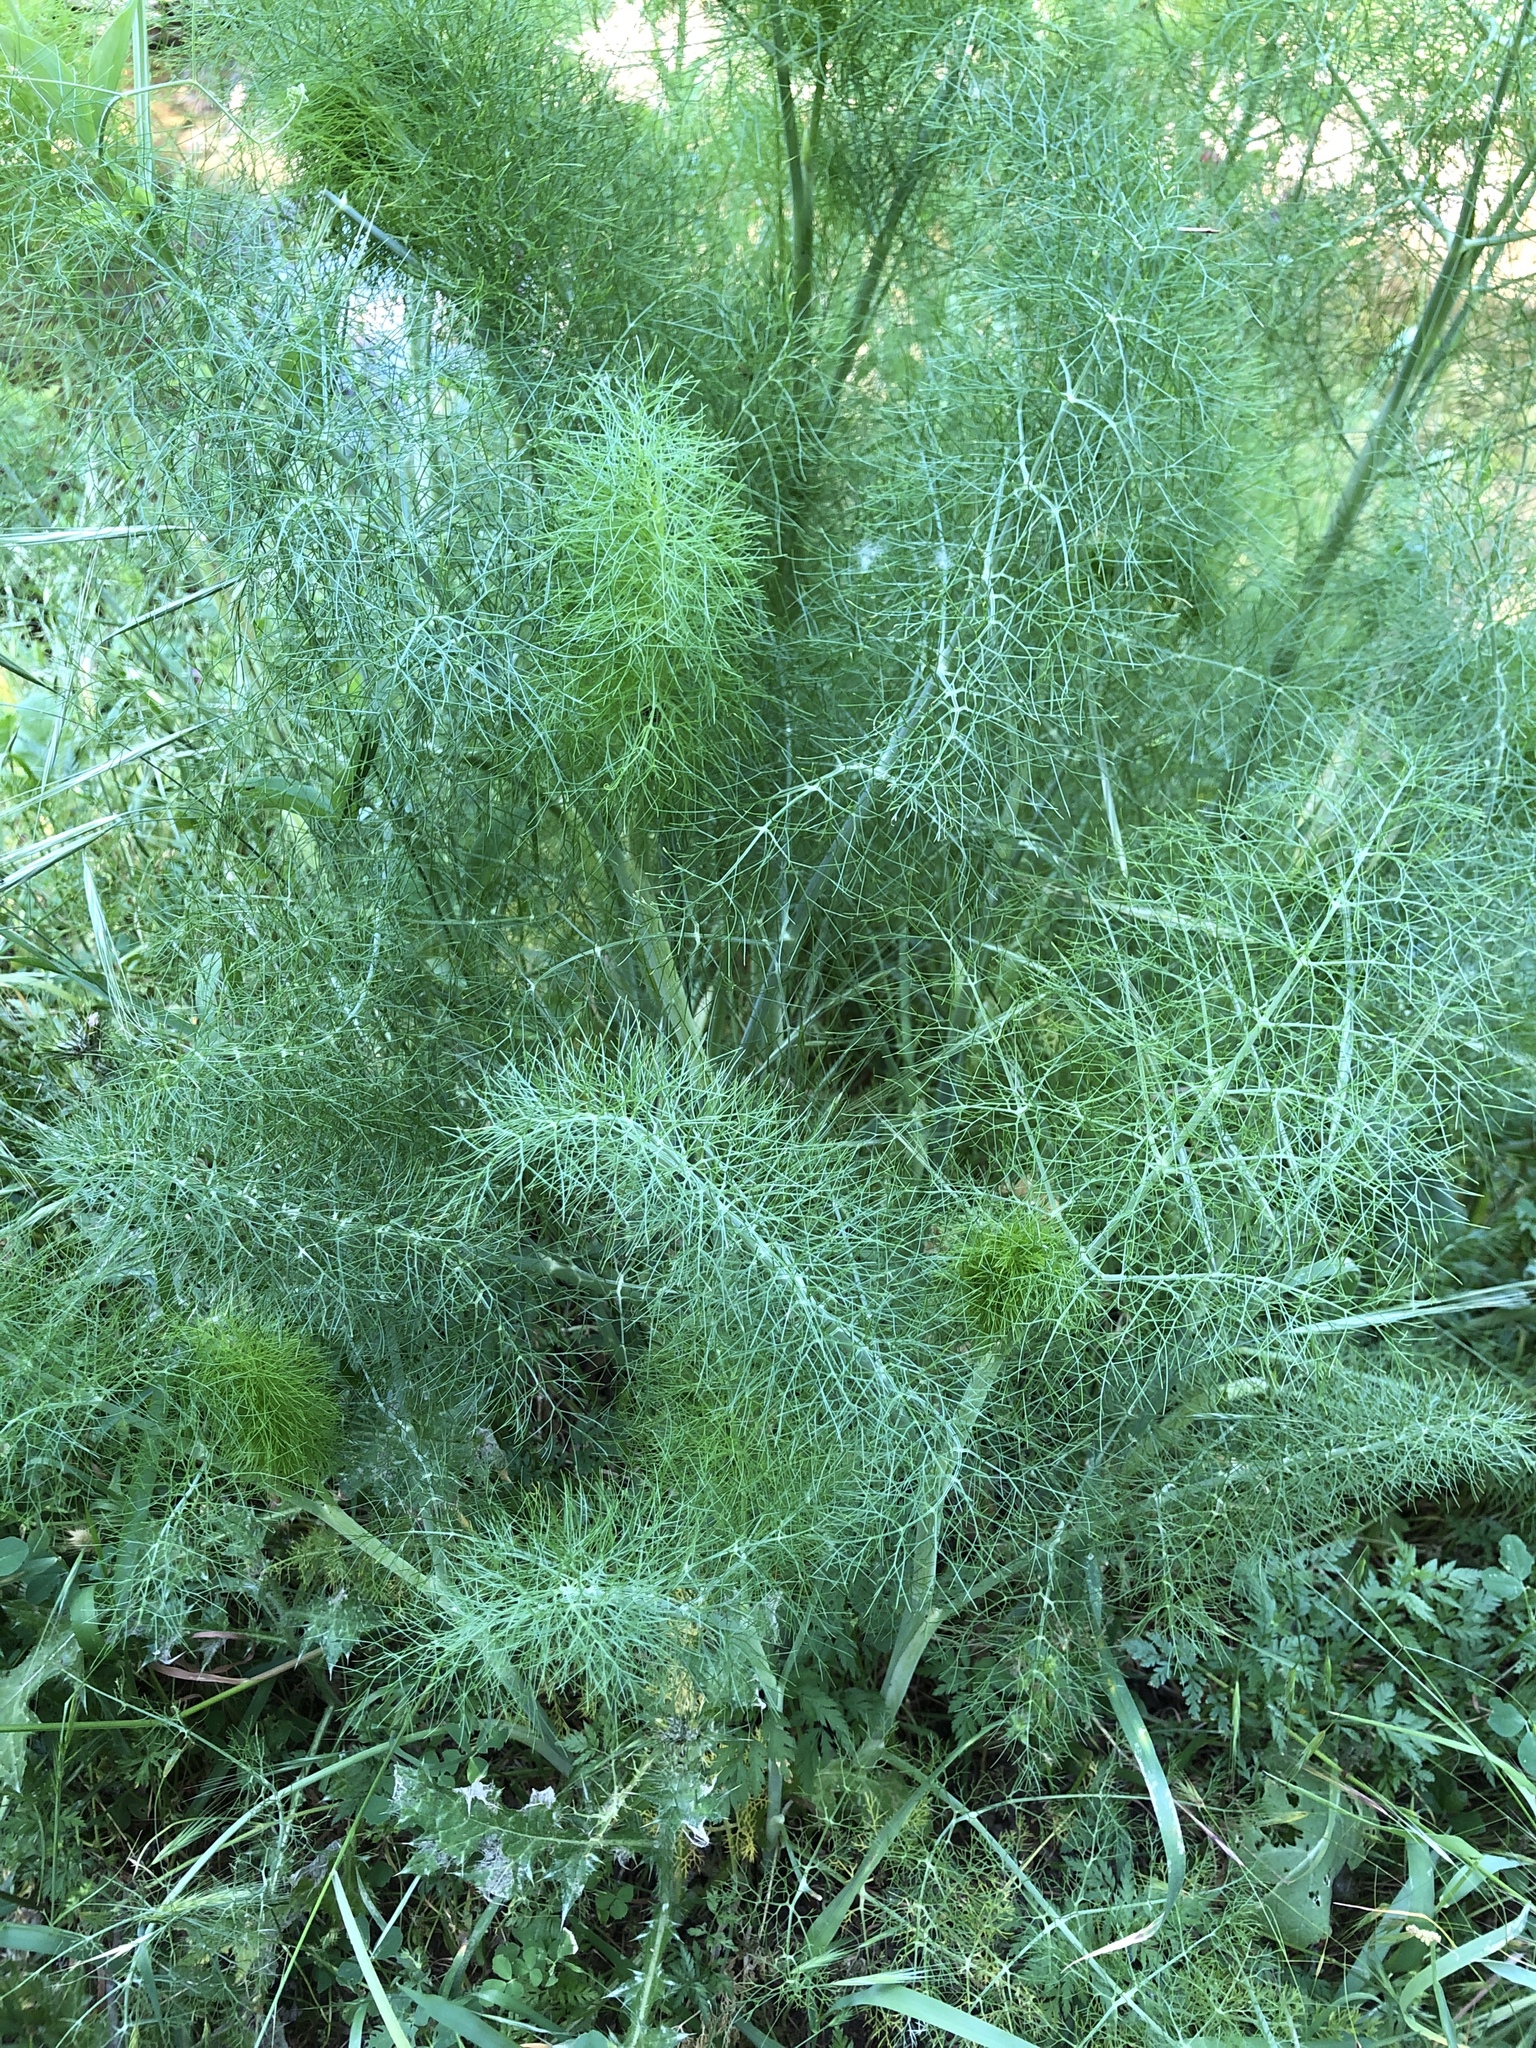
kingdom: Plantae
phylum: Tracheophyta
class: Magnoliopsida
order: Apiales
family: Apiaceae
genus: Foeniculum
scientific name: Foeniculum vulgare
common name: Fennel
